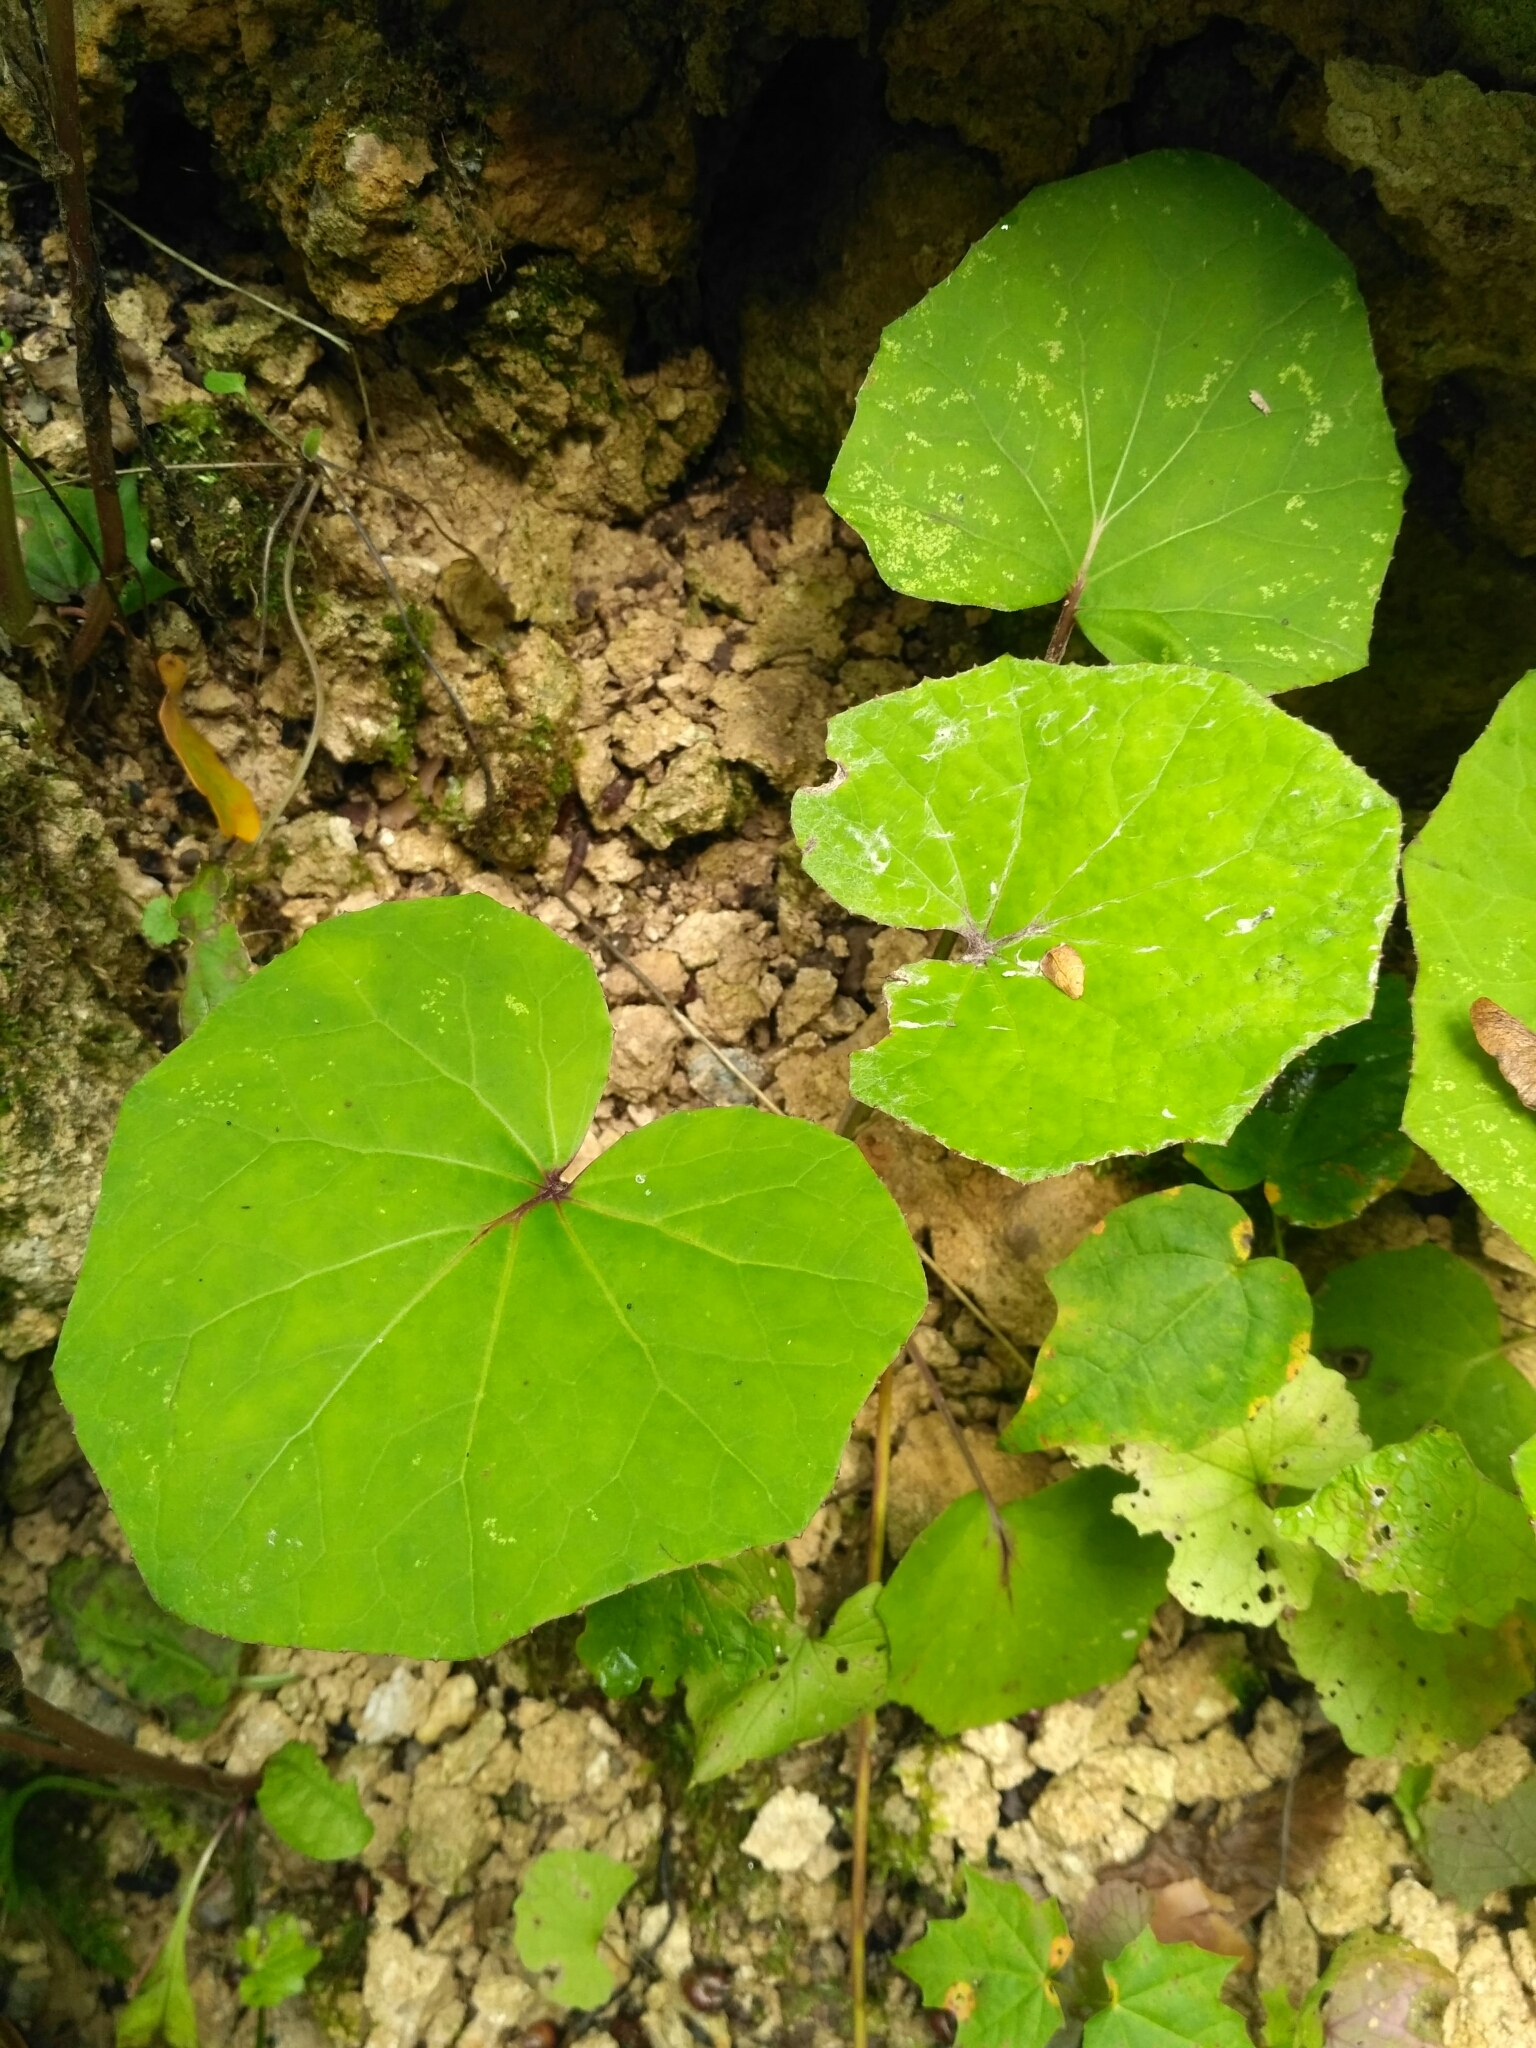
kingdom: Plantae
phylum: Tracheophyta
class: Magnoliopsida
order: Asterales
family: Asteraceae
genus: Tussilago
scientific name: Tussilago farfara
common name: Coltsfoot
